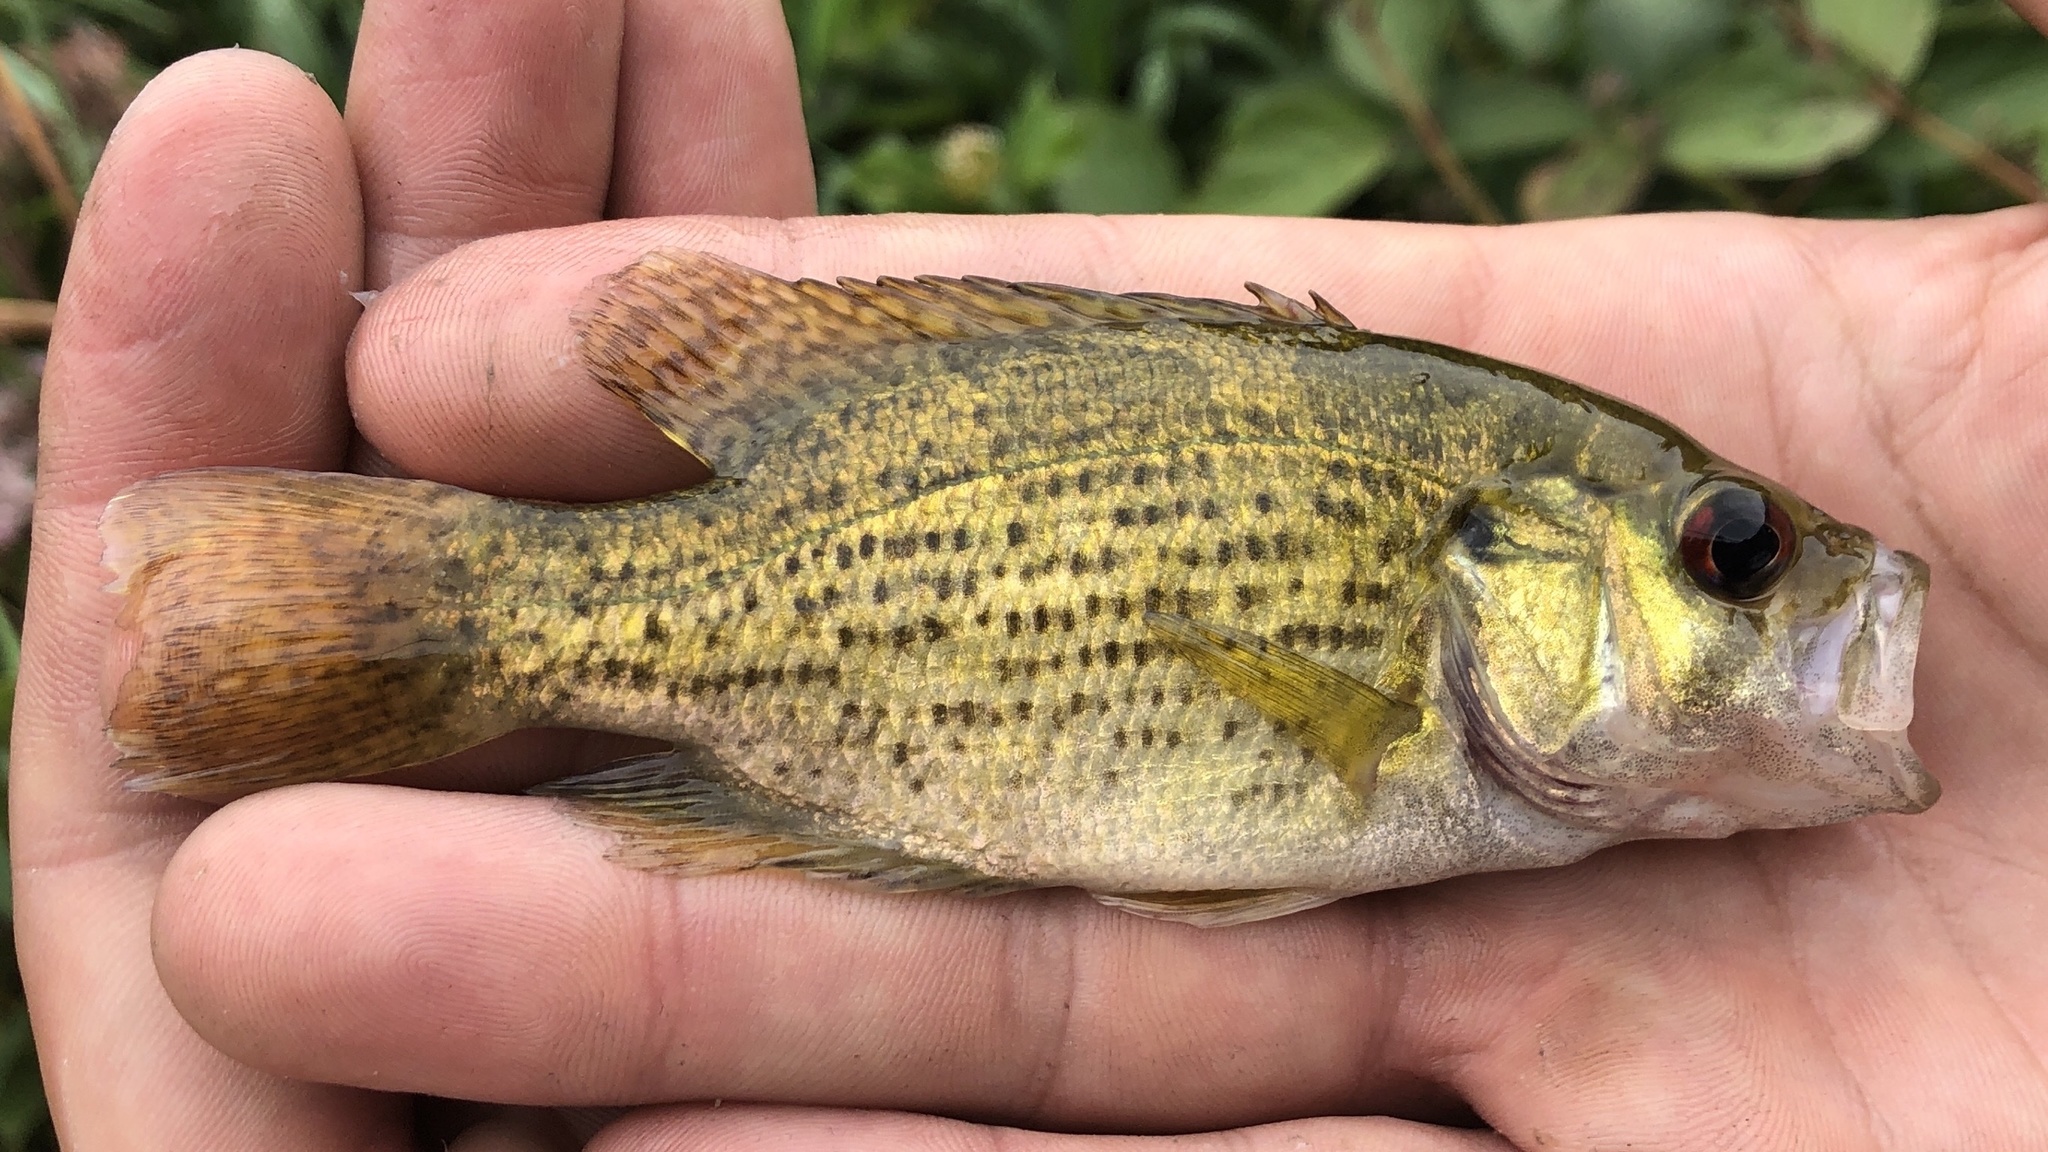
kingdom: Animalia
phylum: Chordata
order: Perciformes
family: Centrarchidae
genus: Ambloplites
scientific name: Ambloplites rupestris
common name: Rock bass
